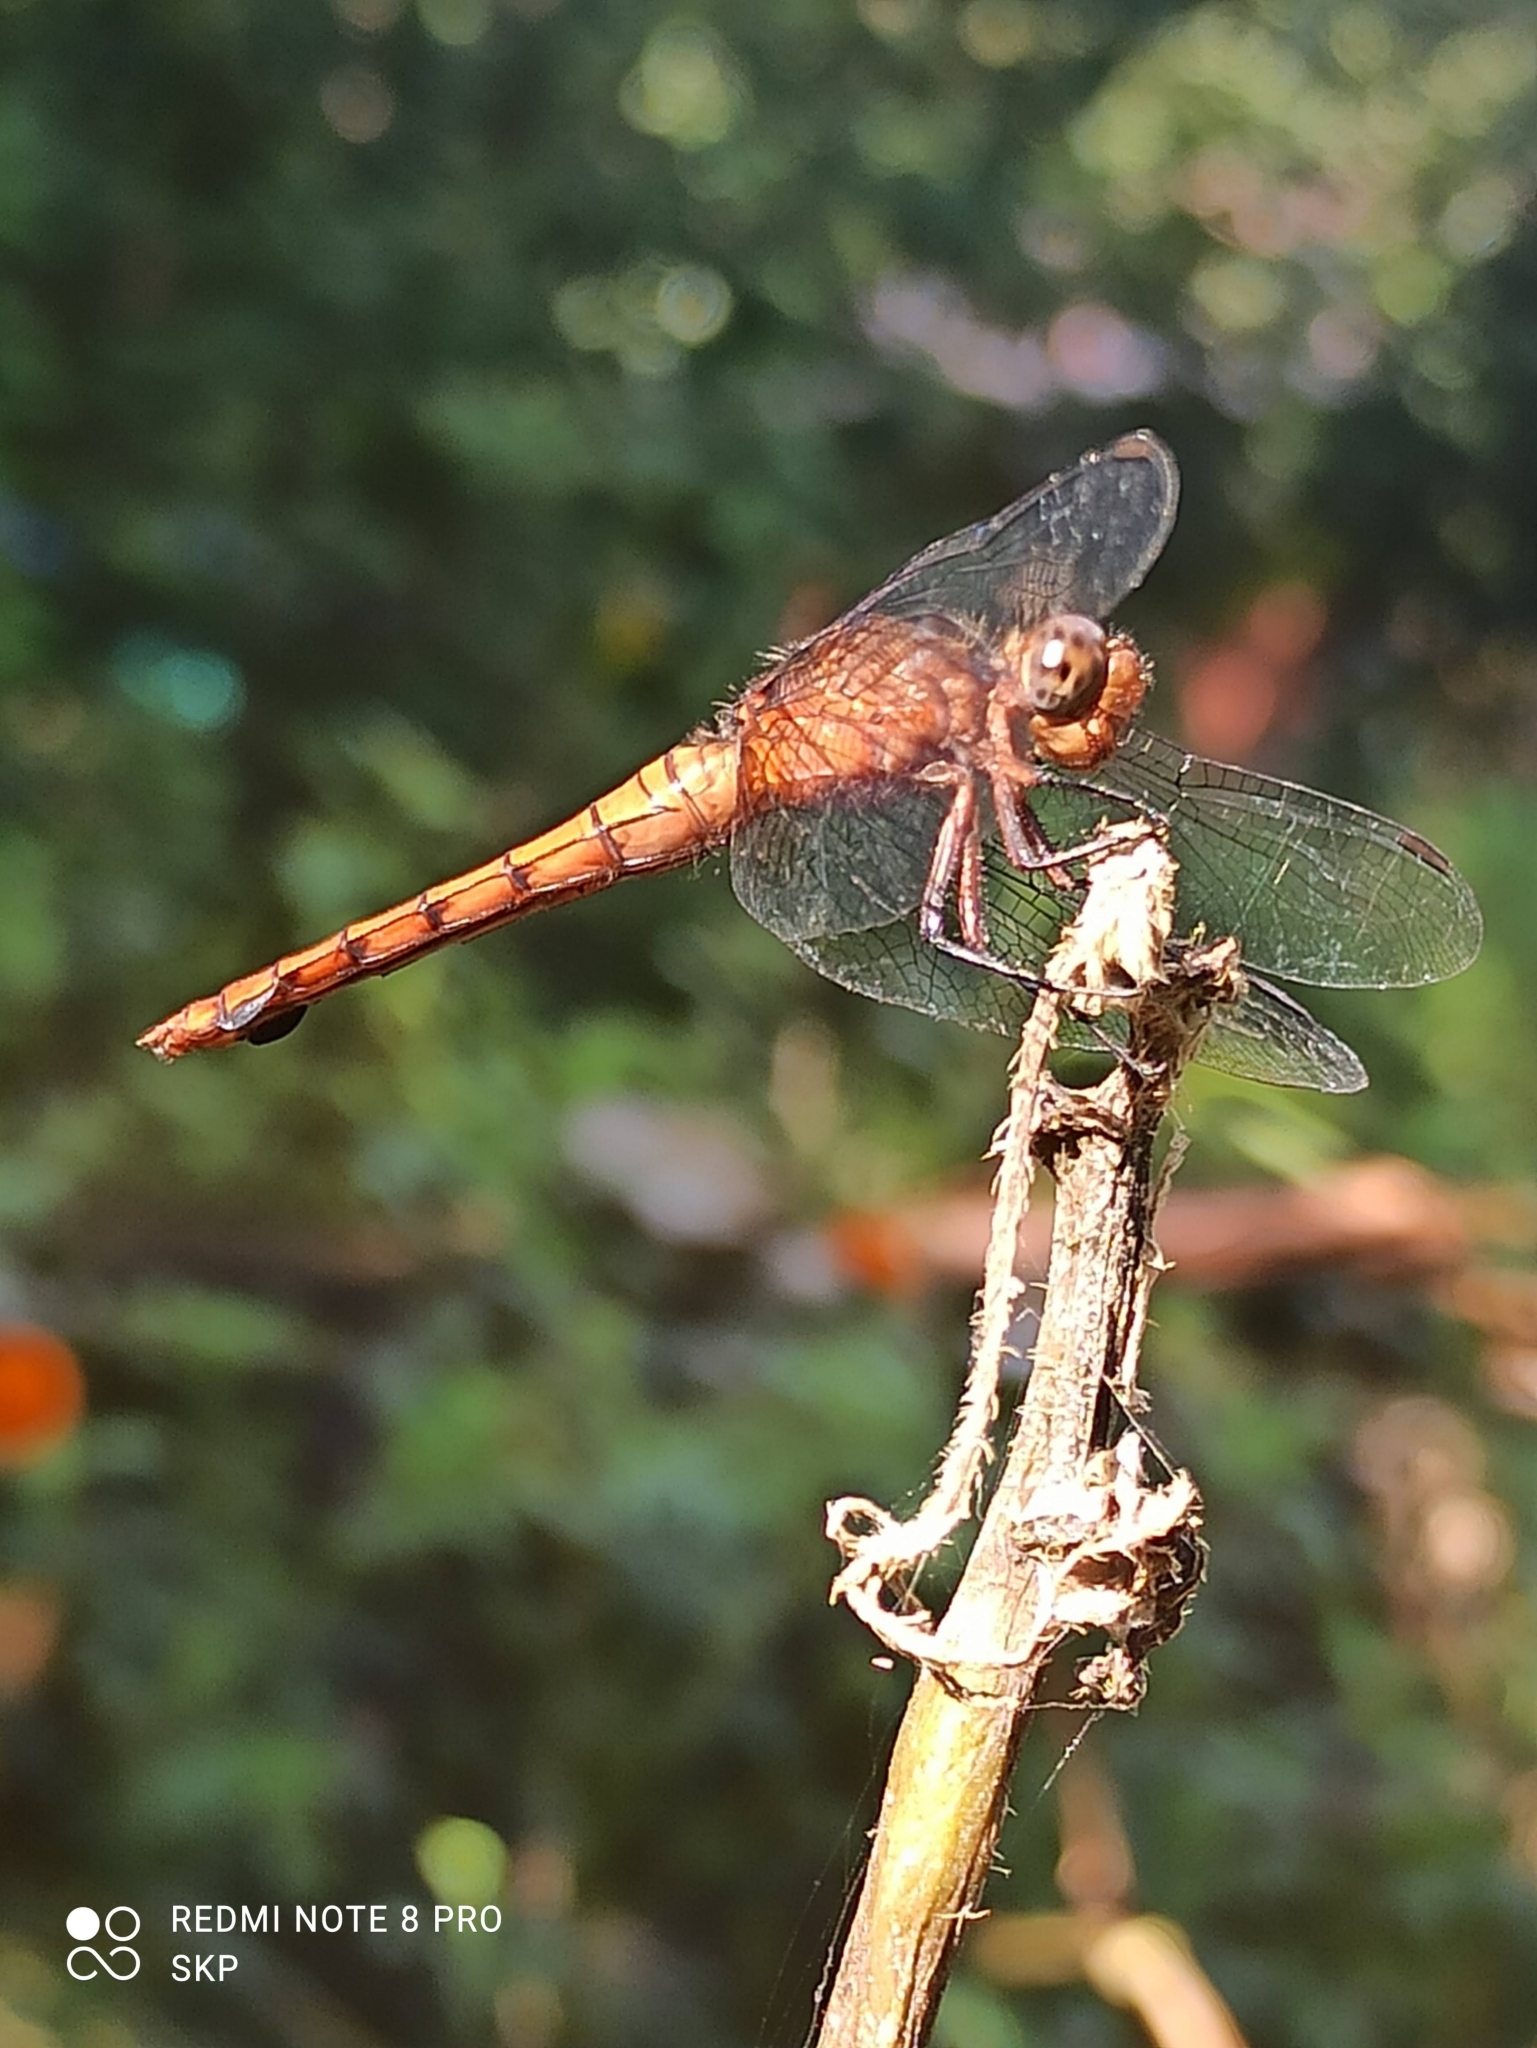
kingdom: Animalia
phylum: Arthropoda
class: Insecta
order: Odonata
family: Libellulidae
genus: Orthetrum
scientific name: Orthetrum chrysis
